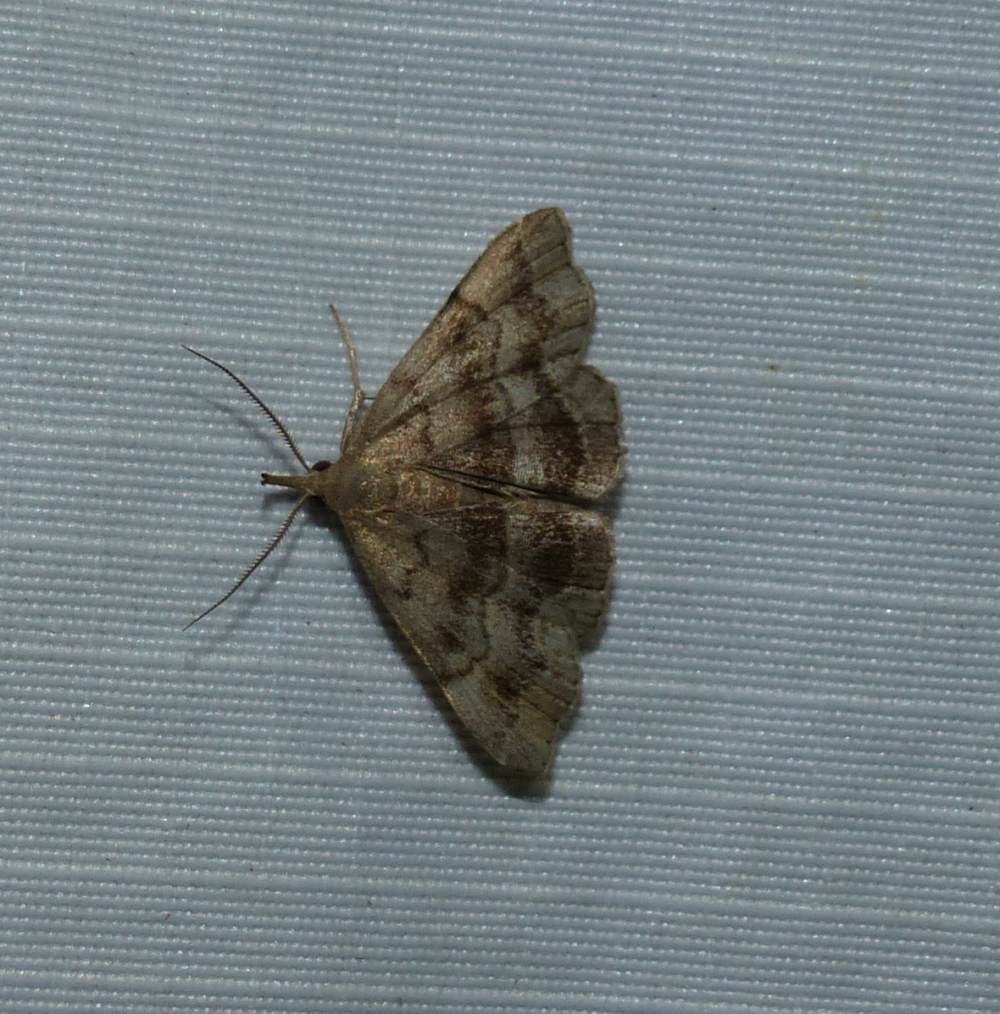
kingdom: Animalia
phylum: Arthropoda
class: Insecta
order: Lepidoptera
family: Erebidae
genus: Phalaenostola
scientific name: Phalaenostola larentioides
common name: Black-banded owlet
